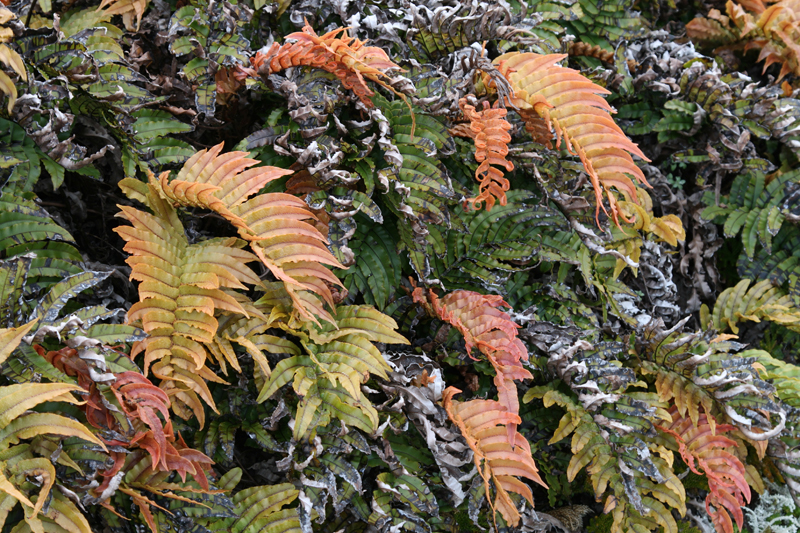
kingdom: Plantae
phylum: Tracheophyta
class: Polypodiopsida
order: Polypodiales
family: Blechnaceae
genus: Parablechnum
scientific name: Parablechnum montanum
